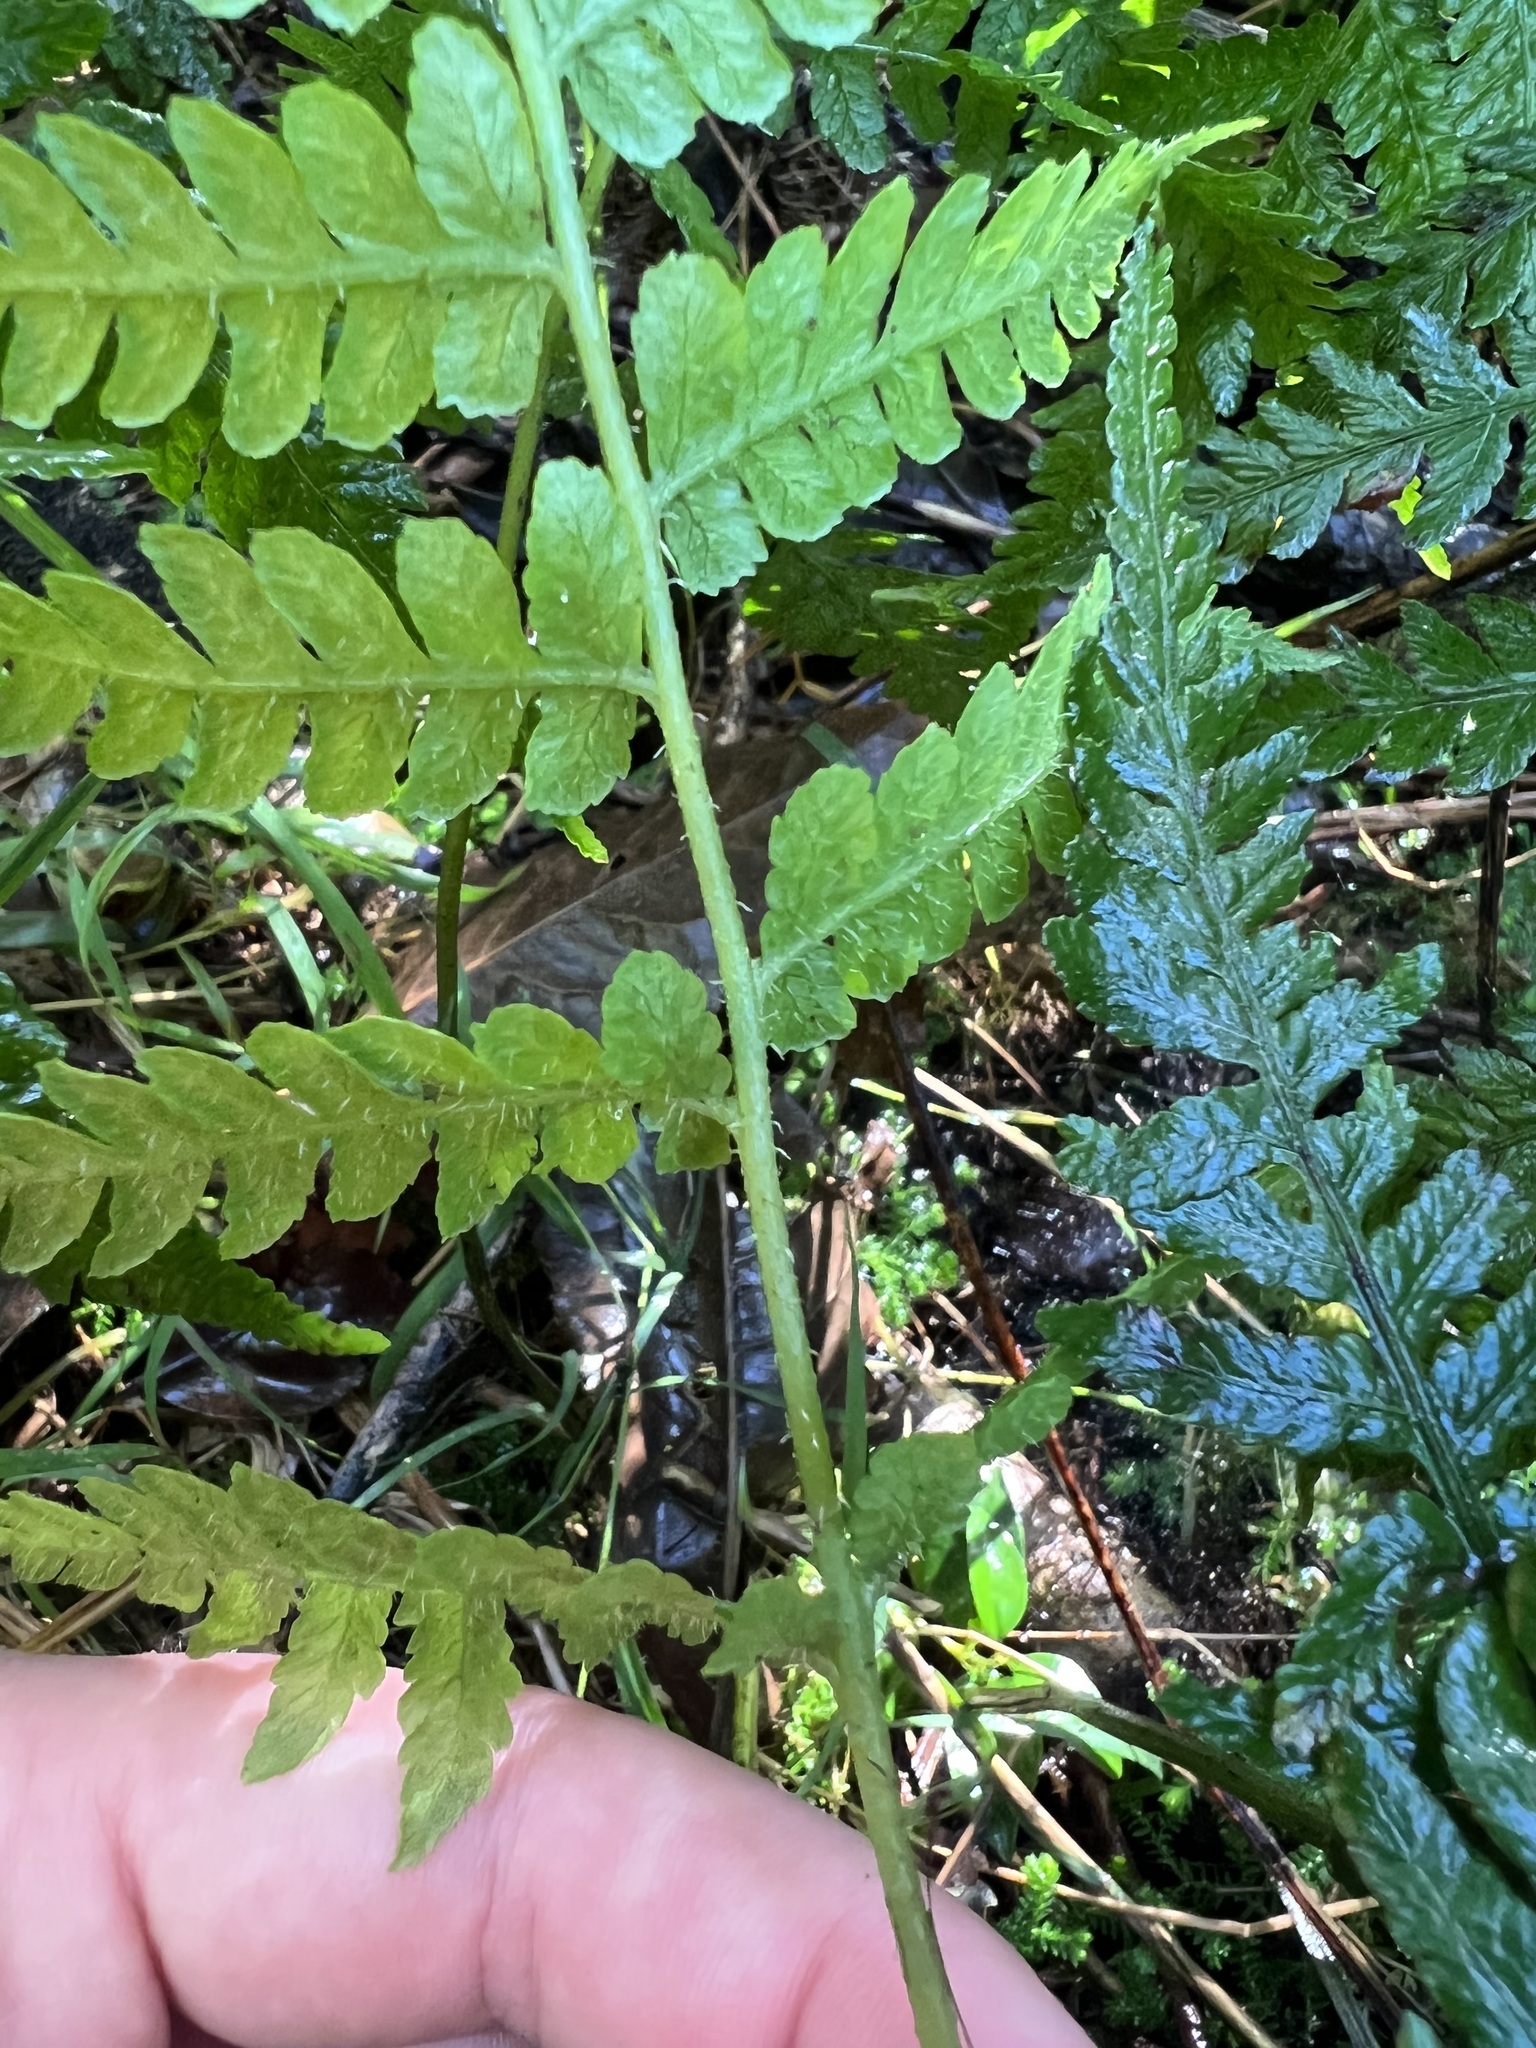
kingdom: Plantae
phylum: Tracheophyta
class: Polypodiopsida
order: Polypodiales
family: Athyriaceae
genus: Diplazium
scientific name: Diplazium congruum
